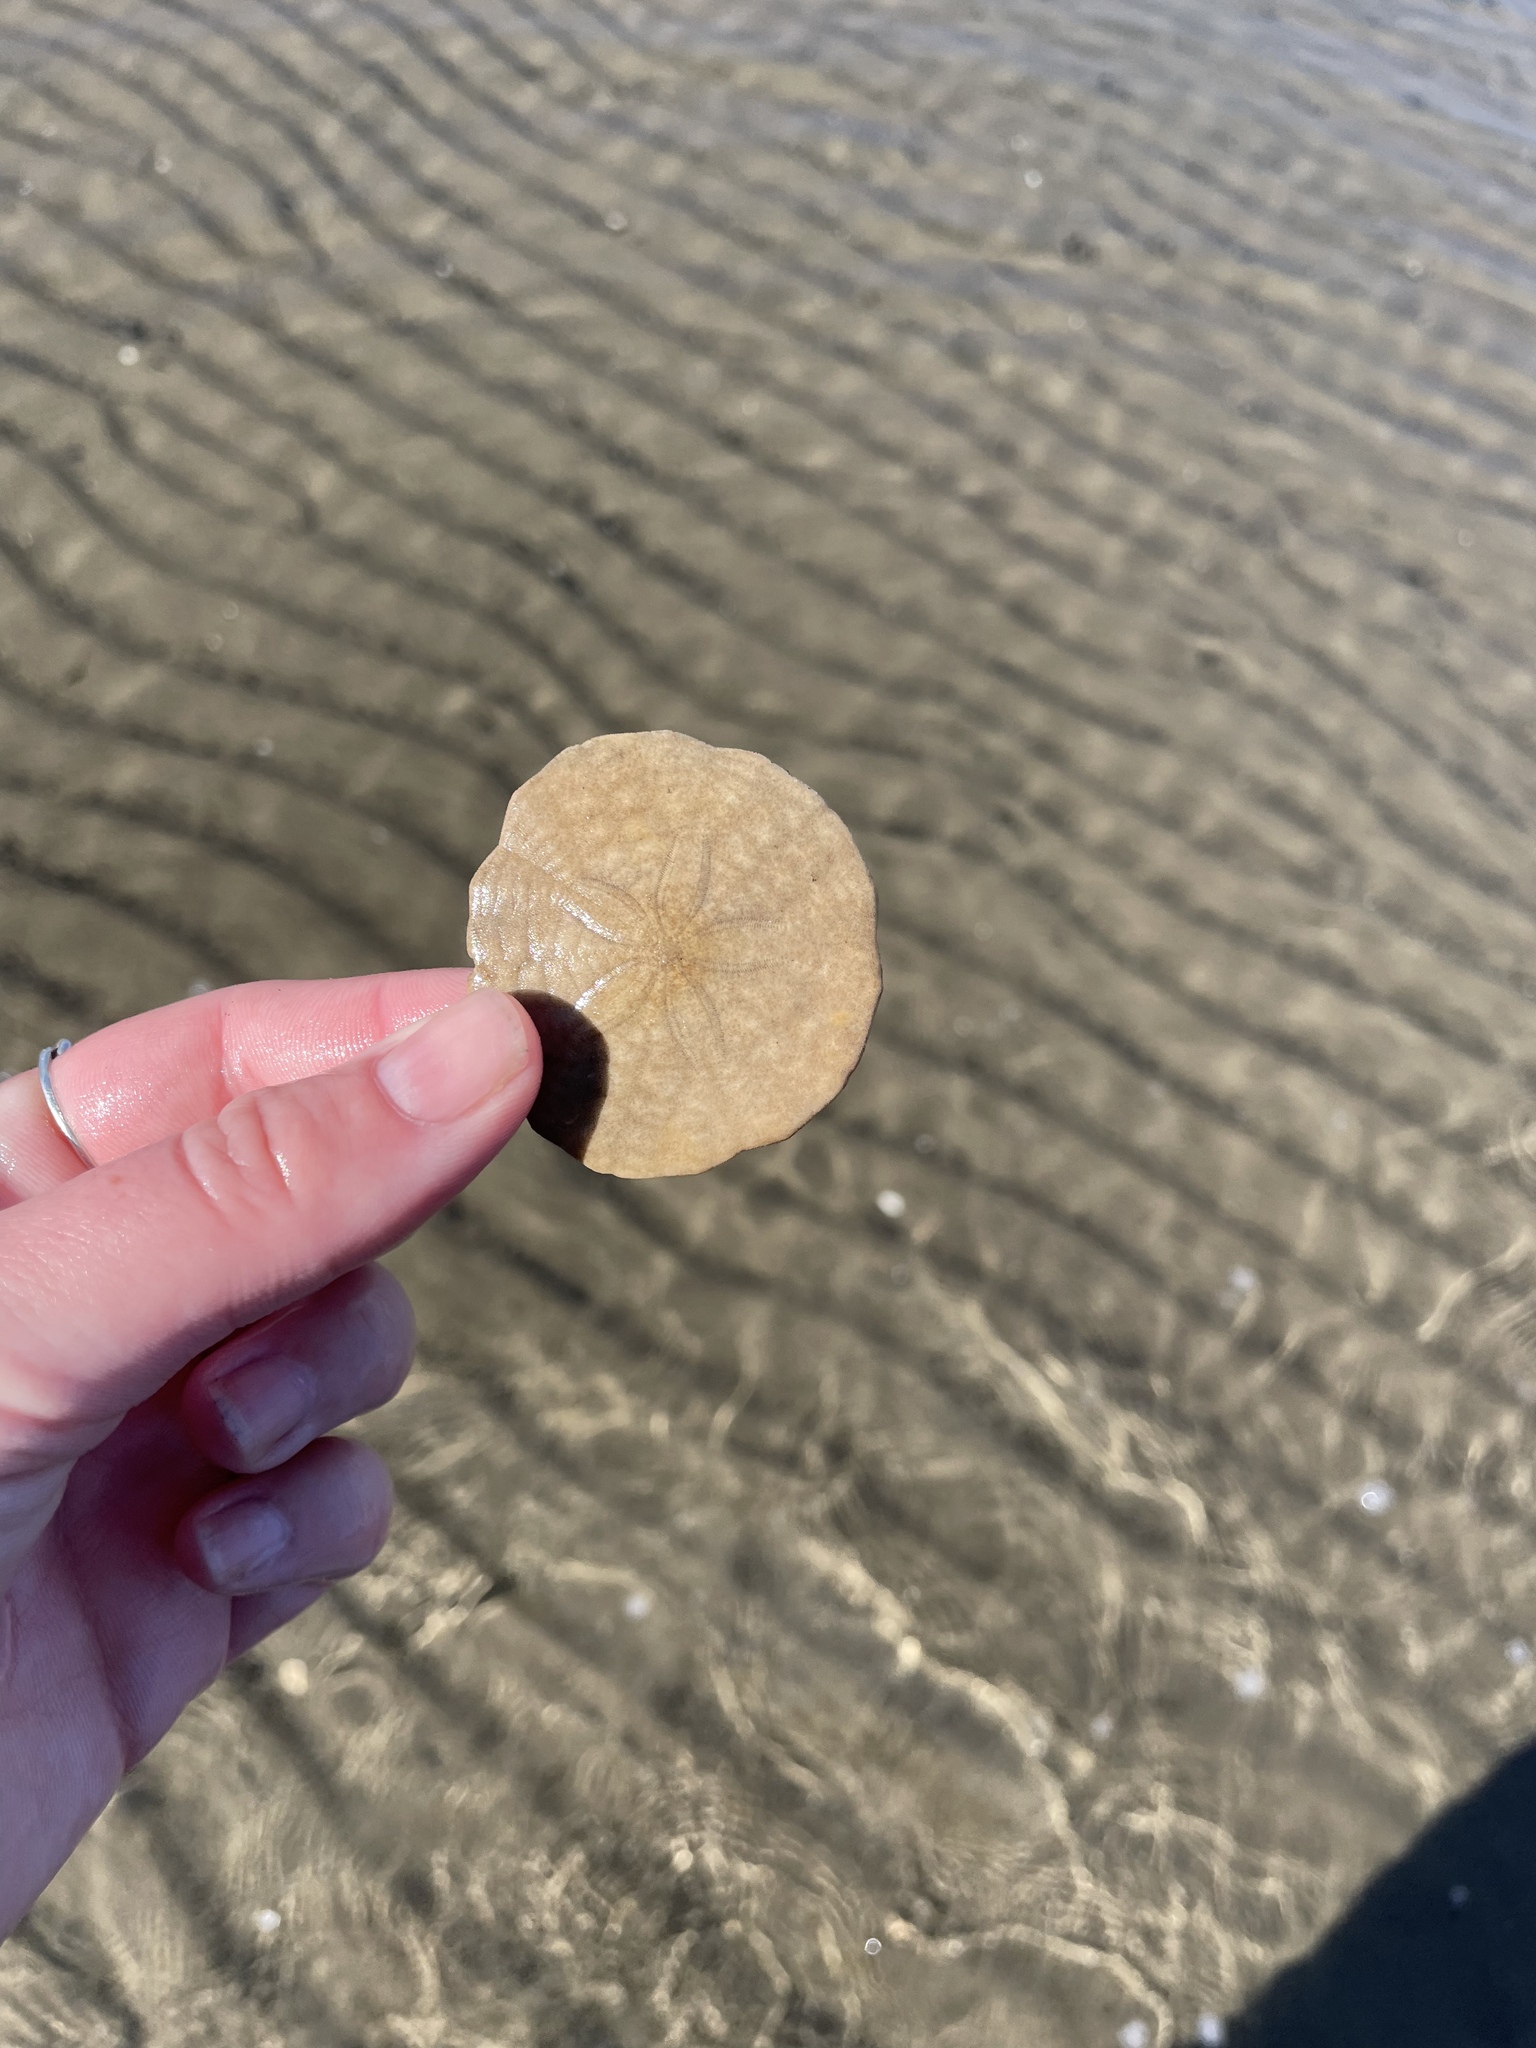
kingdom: Animalia
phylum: Echinodermata
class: Echinoidea
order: Echinolampadacea
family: Echinarachniidae
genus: Echinarachnius
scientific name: Echinarachnius parma
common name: Common sand dollar
